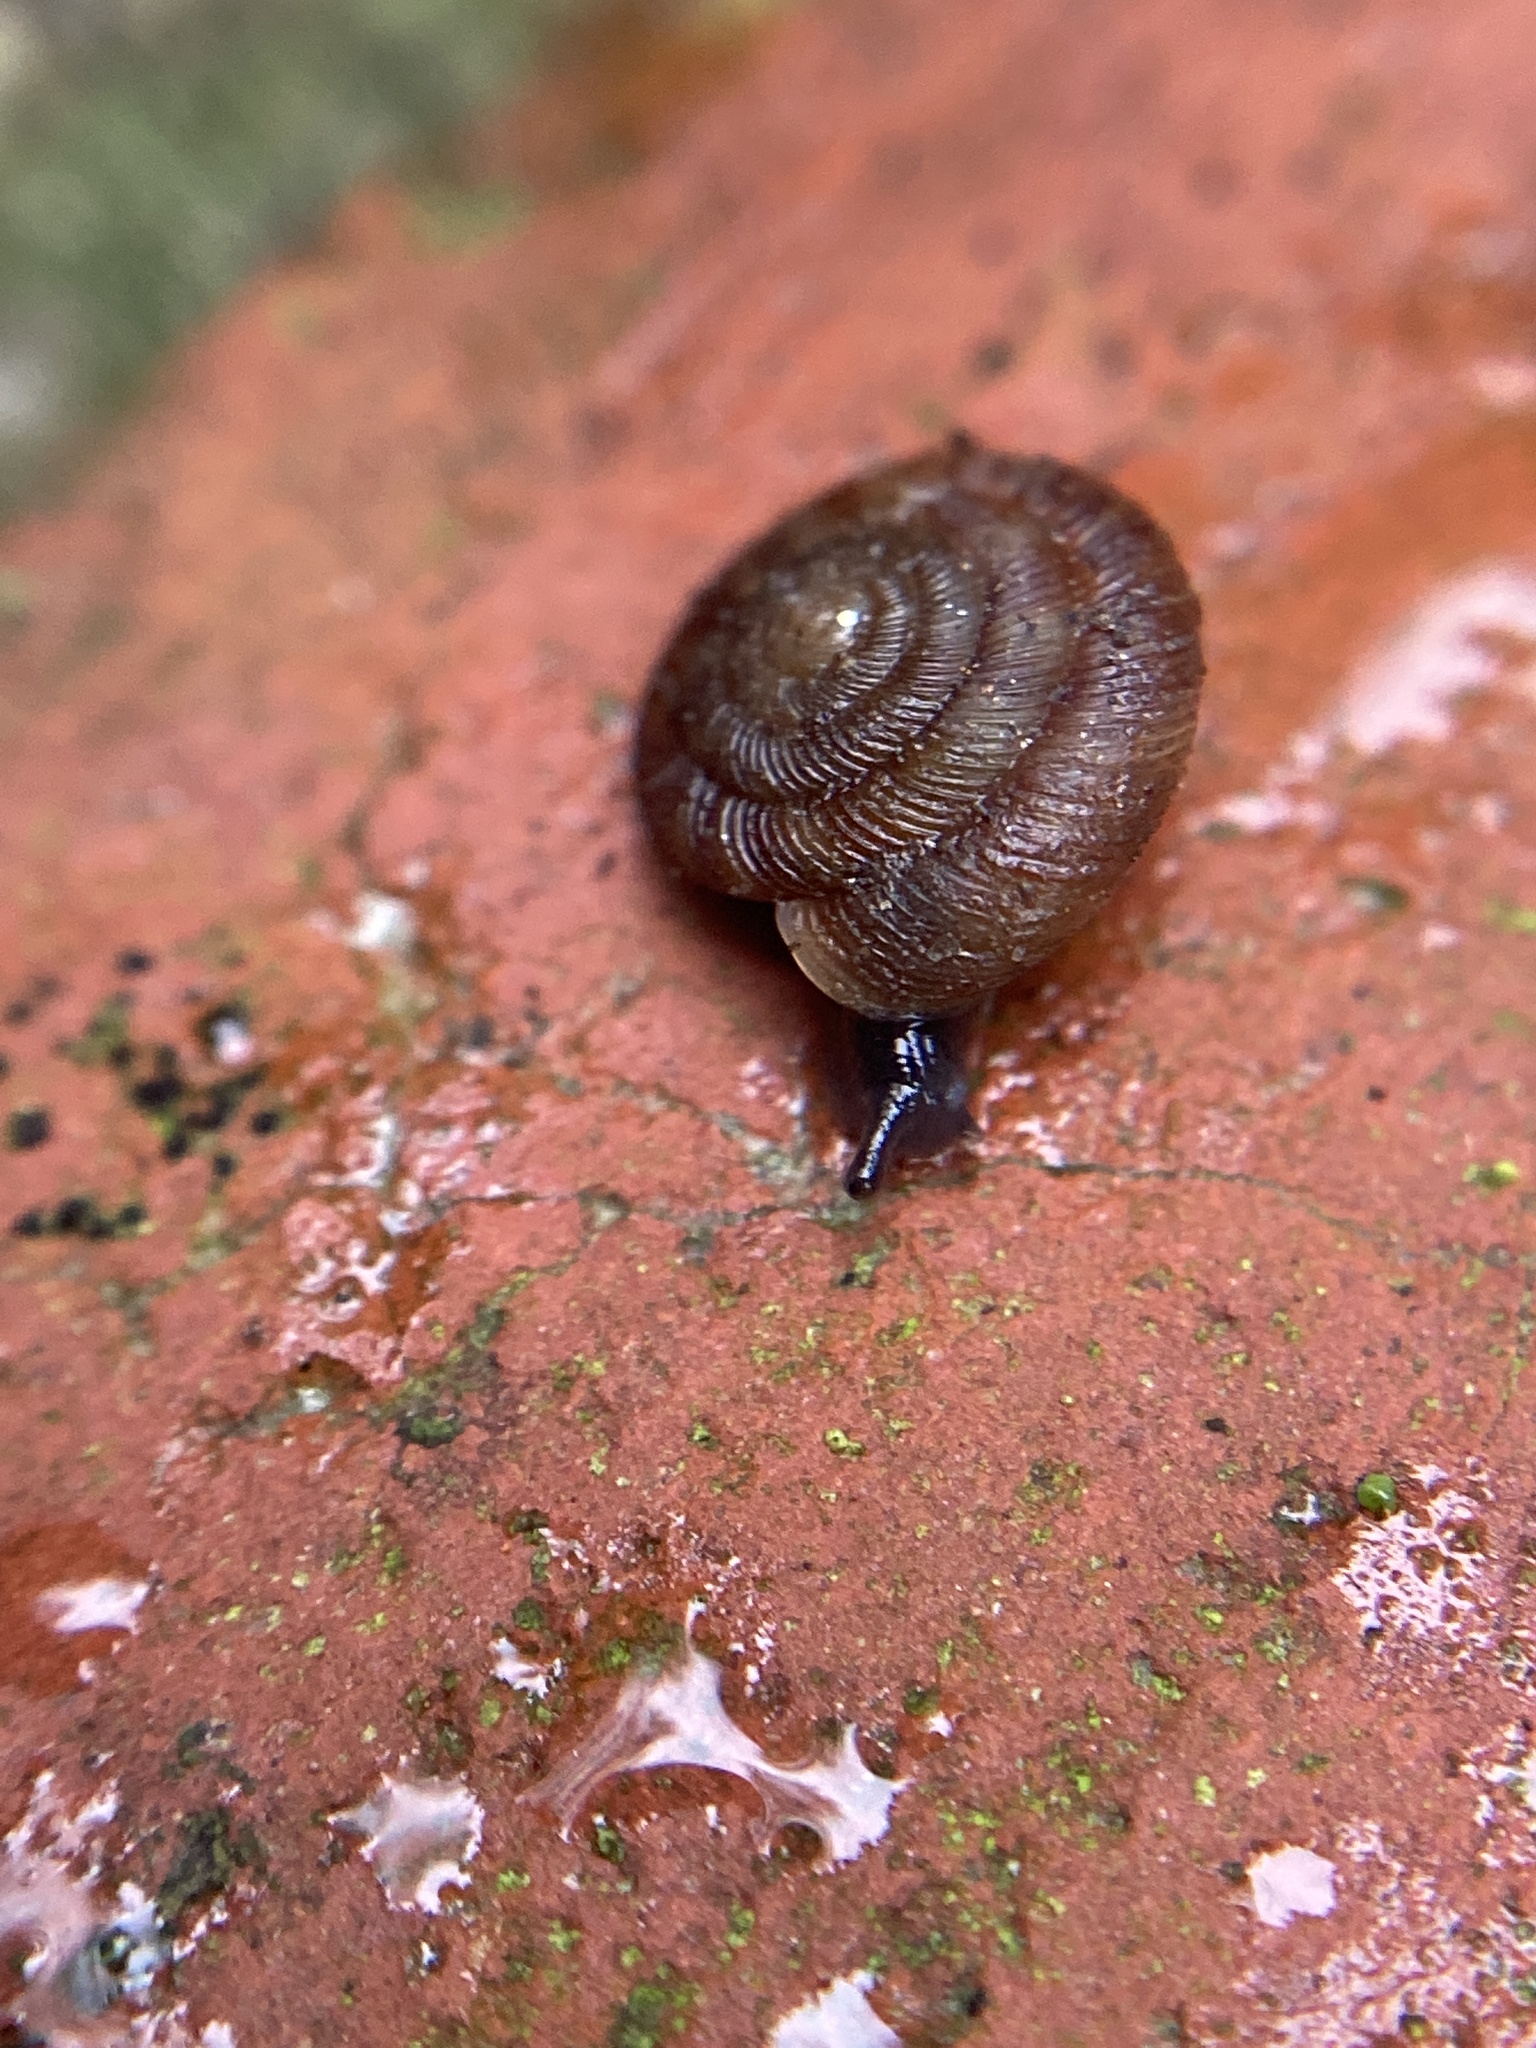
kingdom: Animalia
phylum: Mollusca
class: Gastropoda
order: Stylommatophora
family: Discidae
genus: Discus
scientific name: Discus rotundatus
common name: Rounded snail
